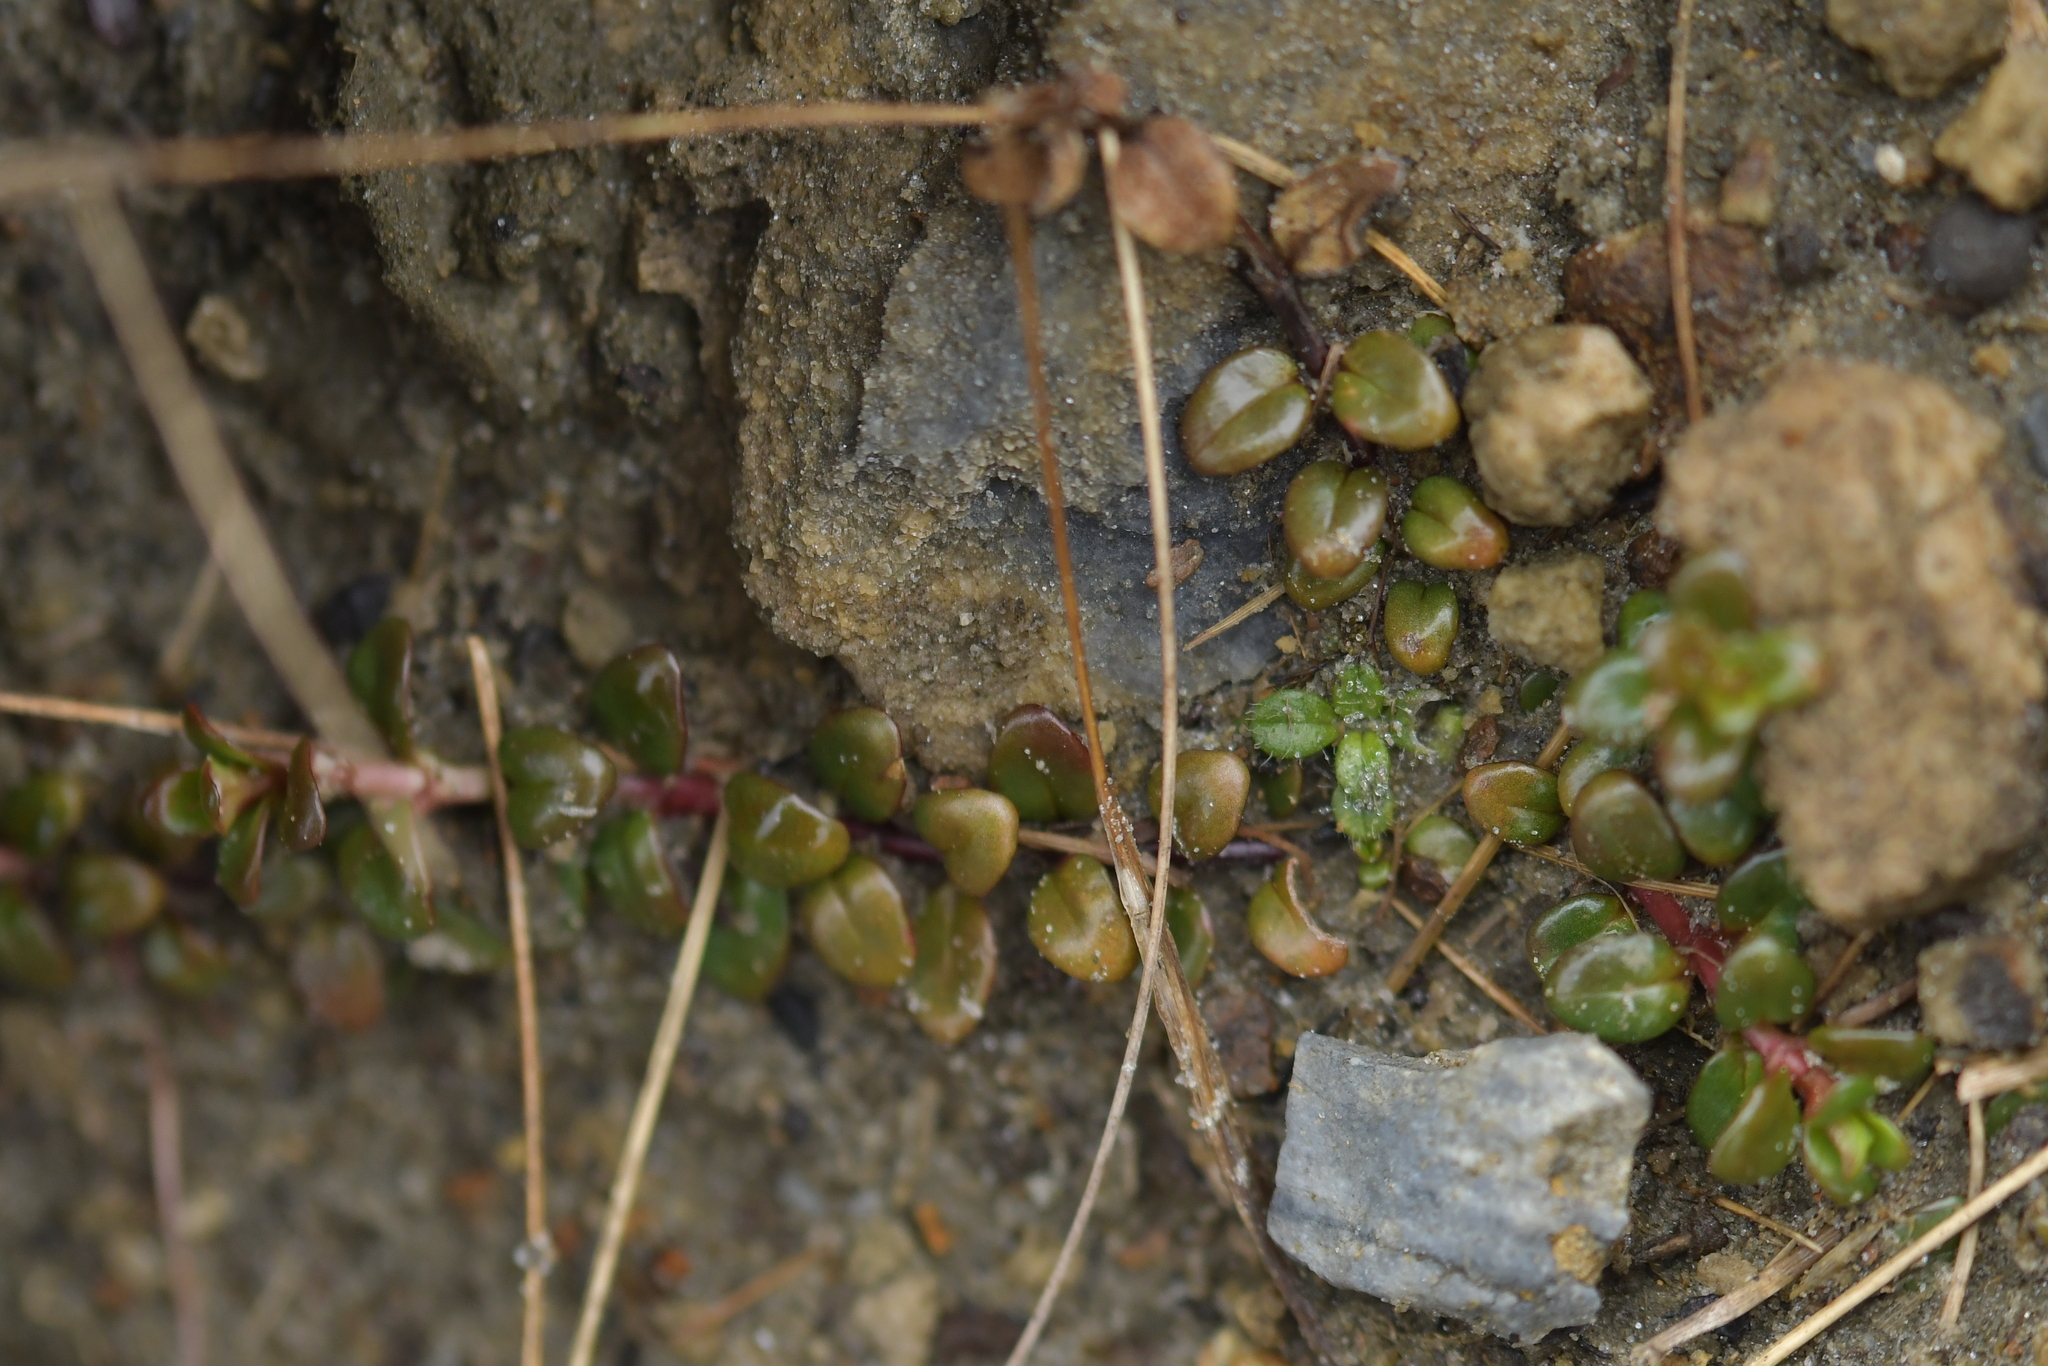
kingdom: Plantae
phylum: Tracheophyta
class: Magnoliopsida
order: Myrtales
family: Onagraceae
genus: Epilobium
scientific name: Epilobium gracilipes
